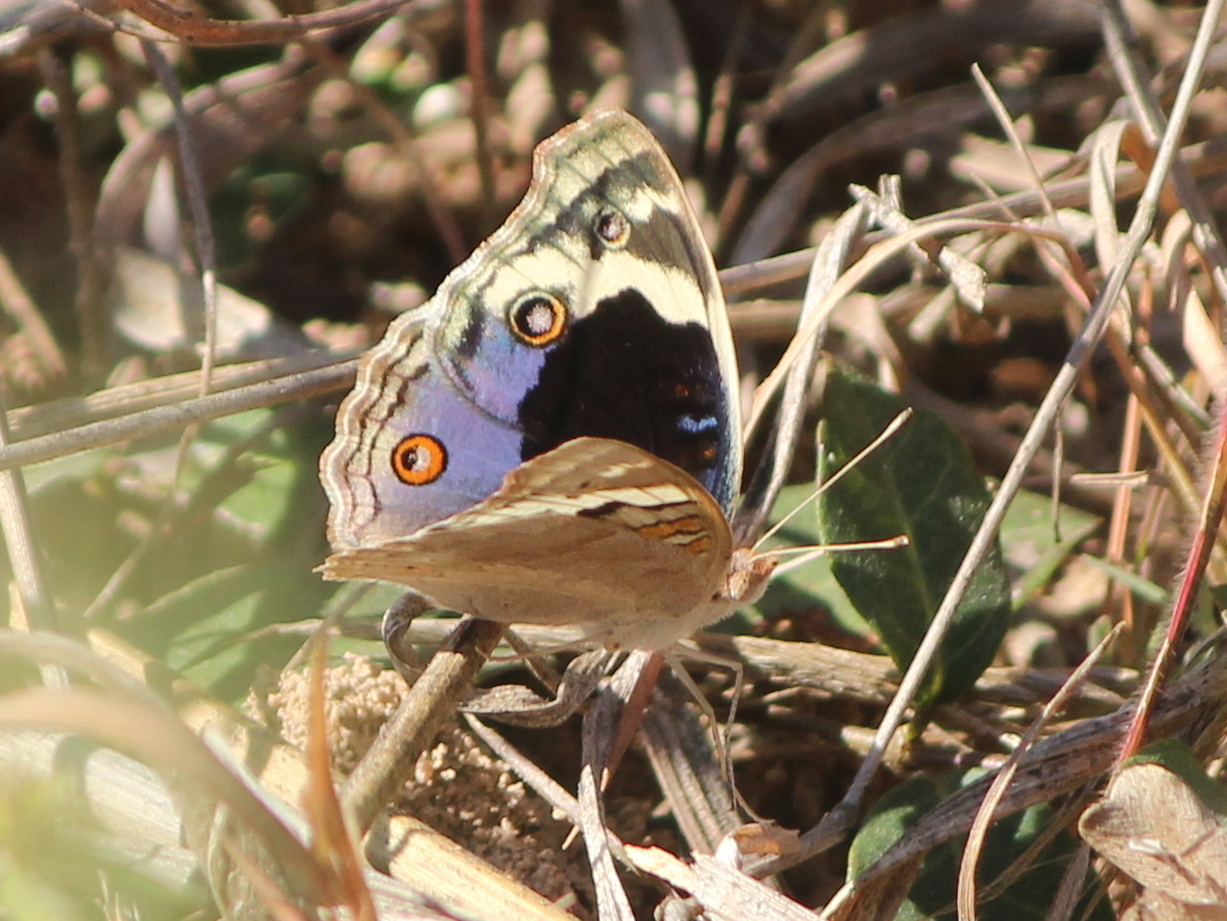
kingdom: Animalia
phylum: Arthropoda
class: Insecta
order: Lepidoptera
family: Nymphalidae
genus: Junonia
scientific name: Junonia orithya
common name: Blue pansy
